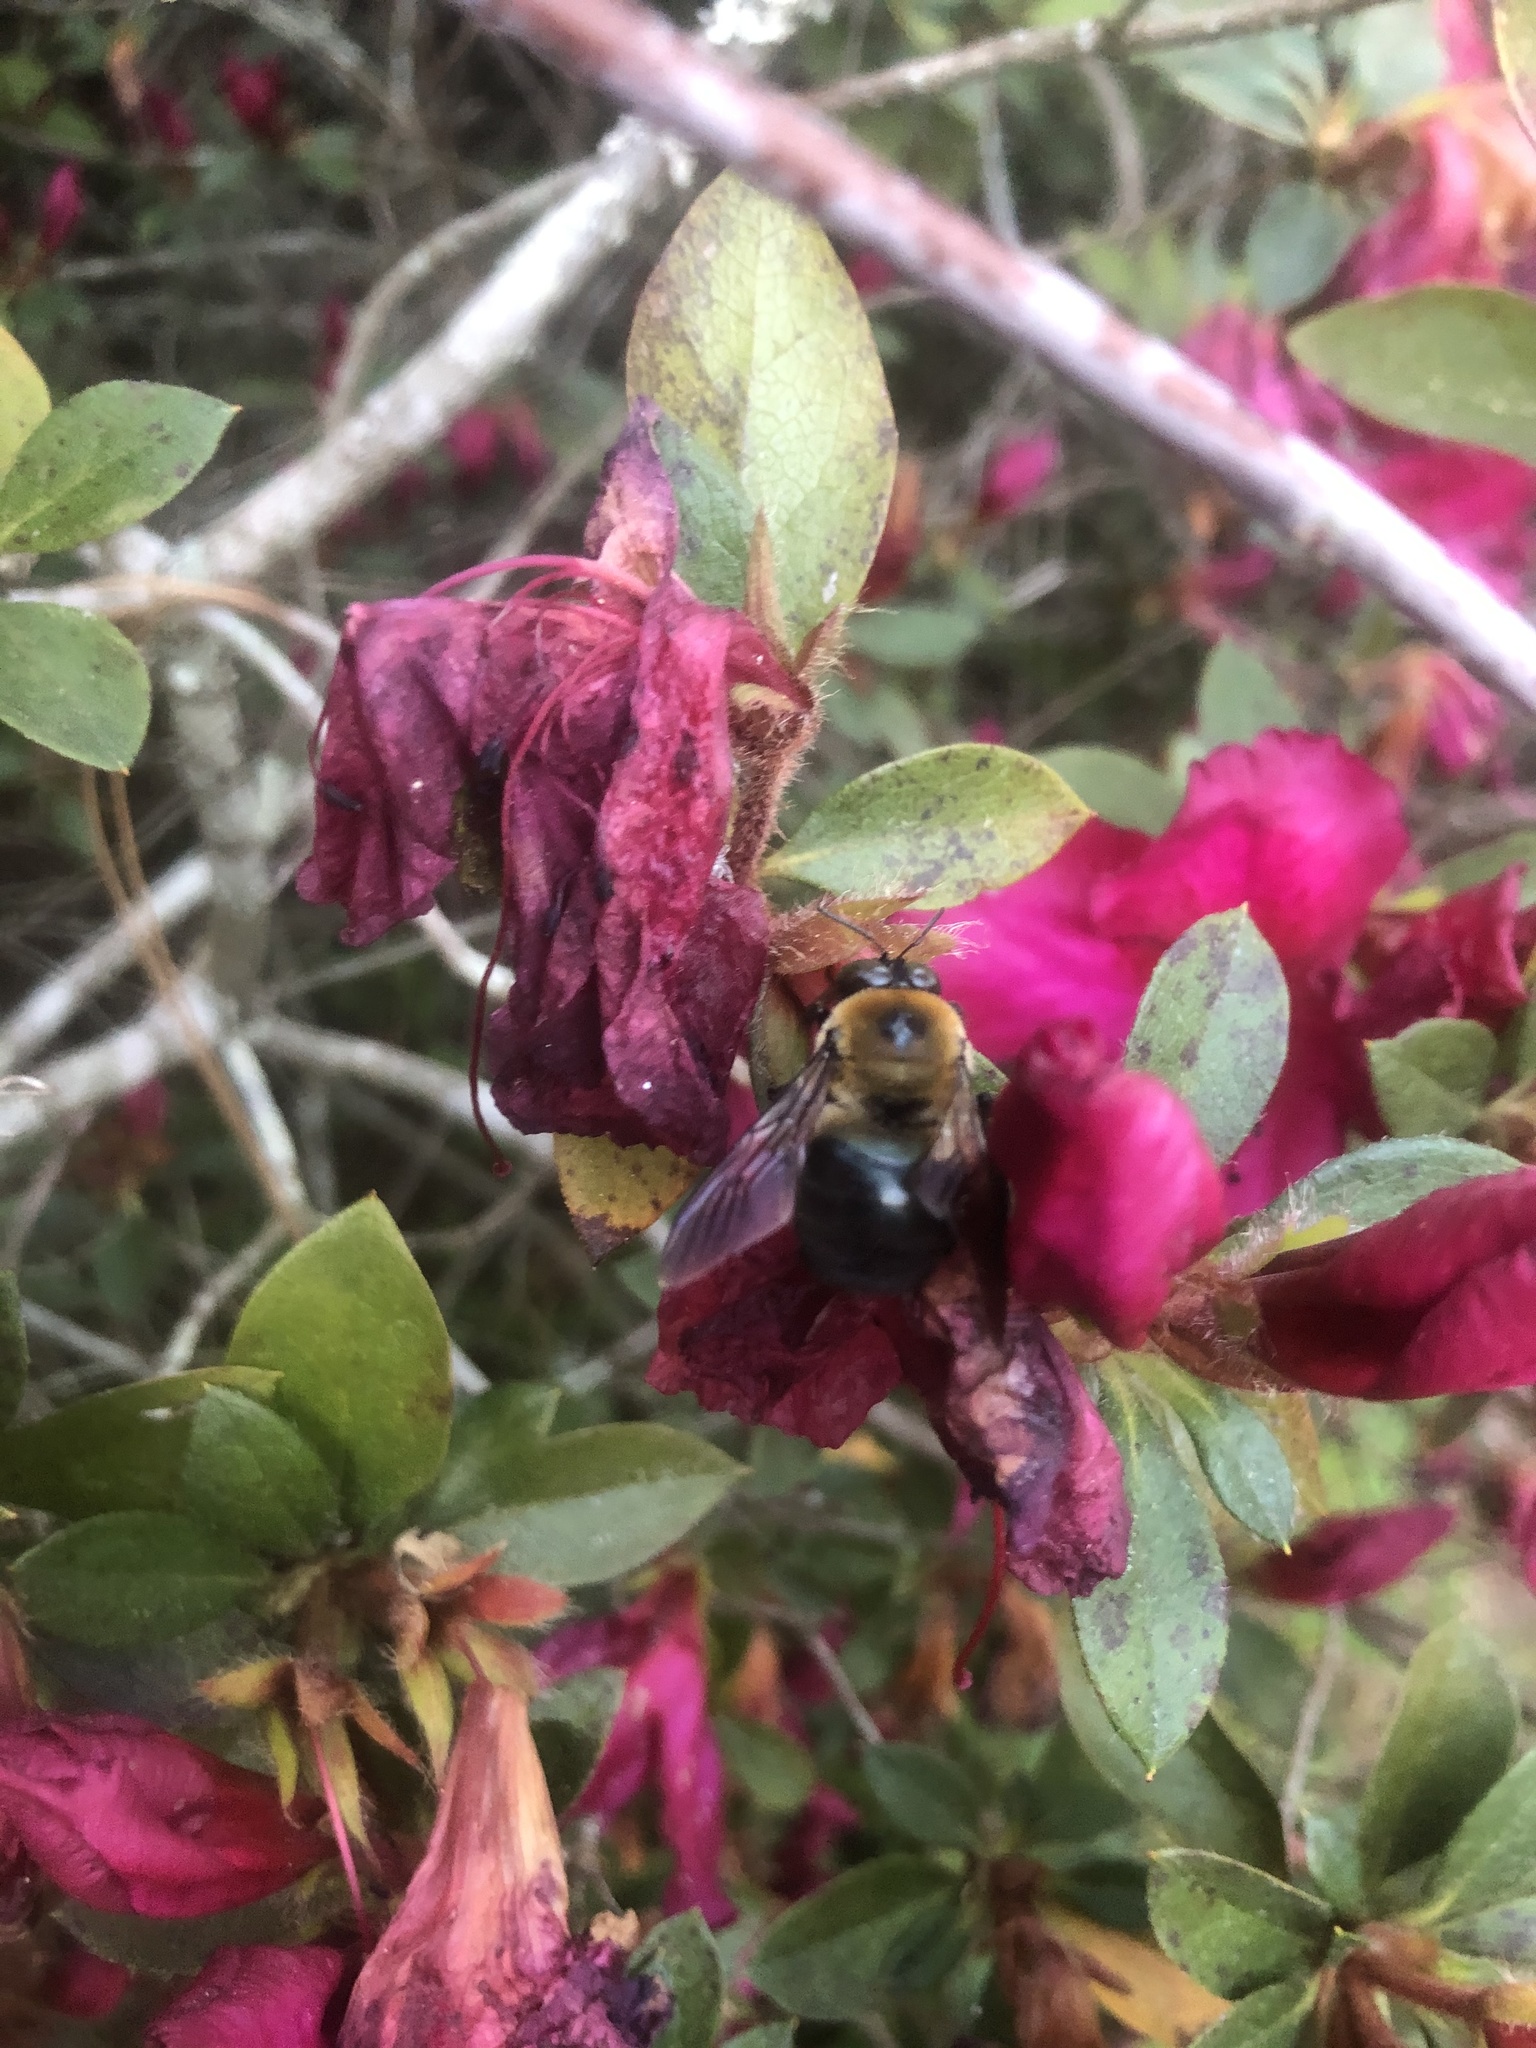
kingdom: Animalia
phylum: Arthropoda
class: Insecta
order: Hymenoptera
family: Apidae
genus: Xylocopa
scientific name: Xylocopa virginica
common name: Carpenter bee
